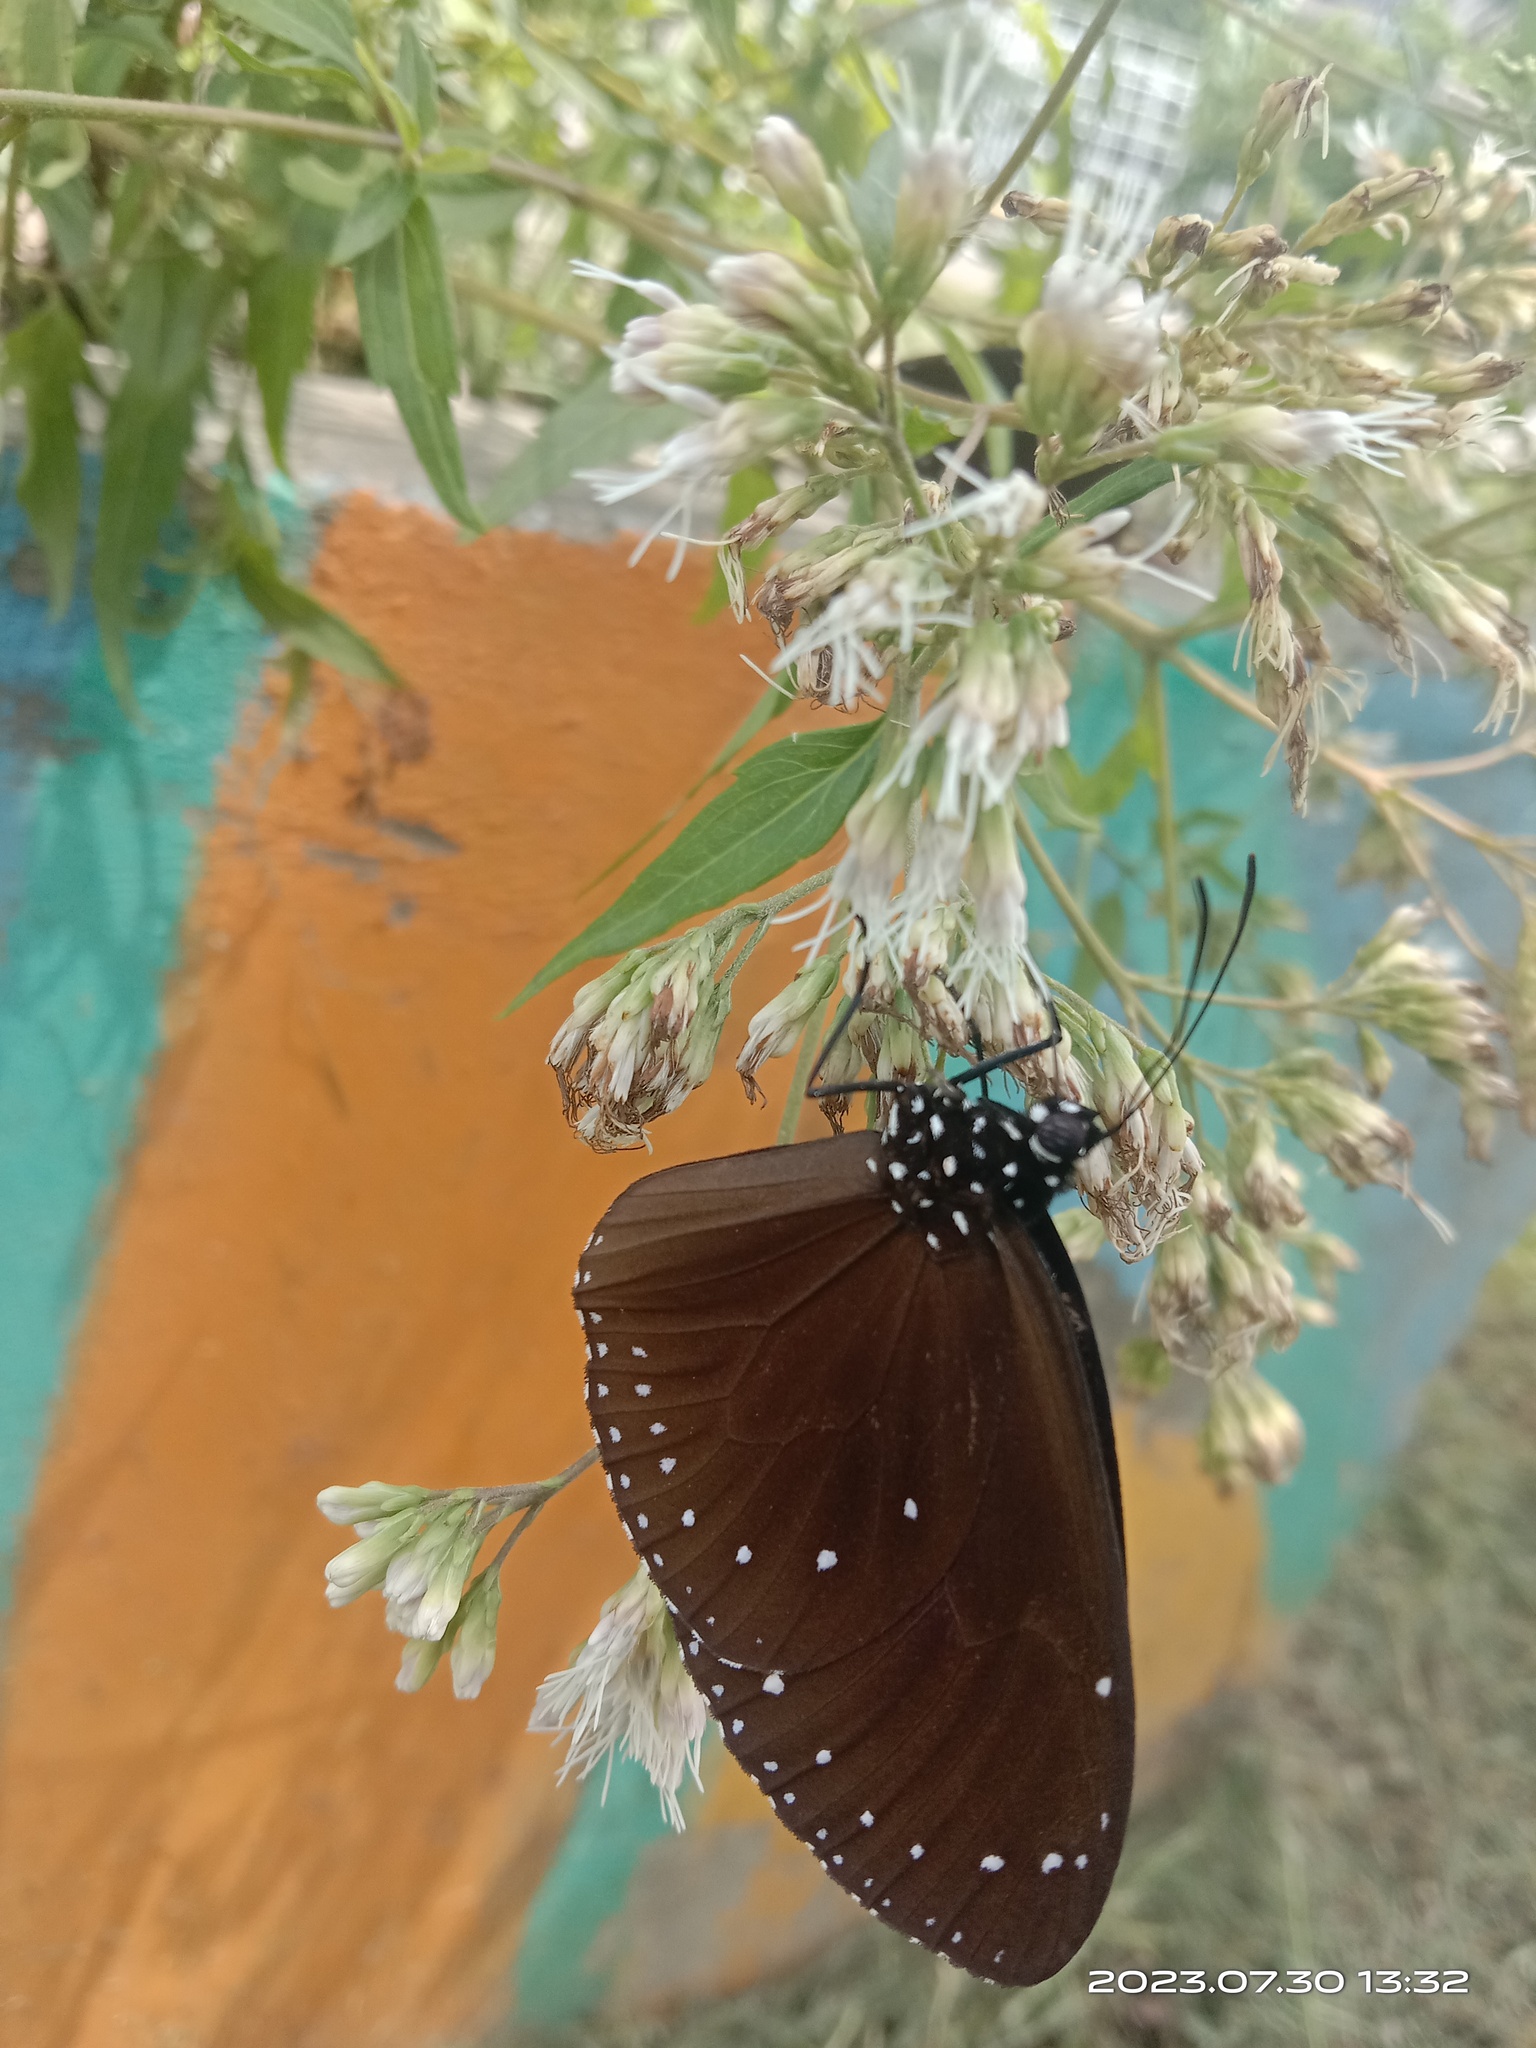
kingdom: Animalia
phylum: Arthropoda
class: Insecta
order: Lepidoptera
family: Nymphalidae
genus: Euploea
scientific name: Euploea tulliolus
